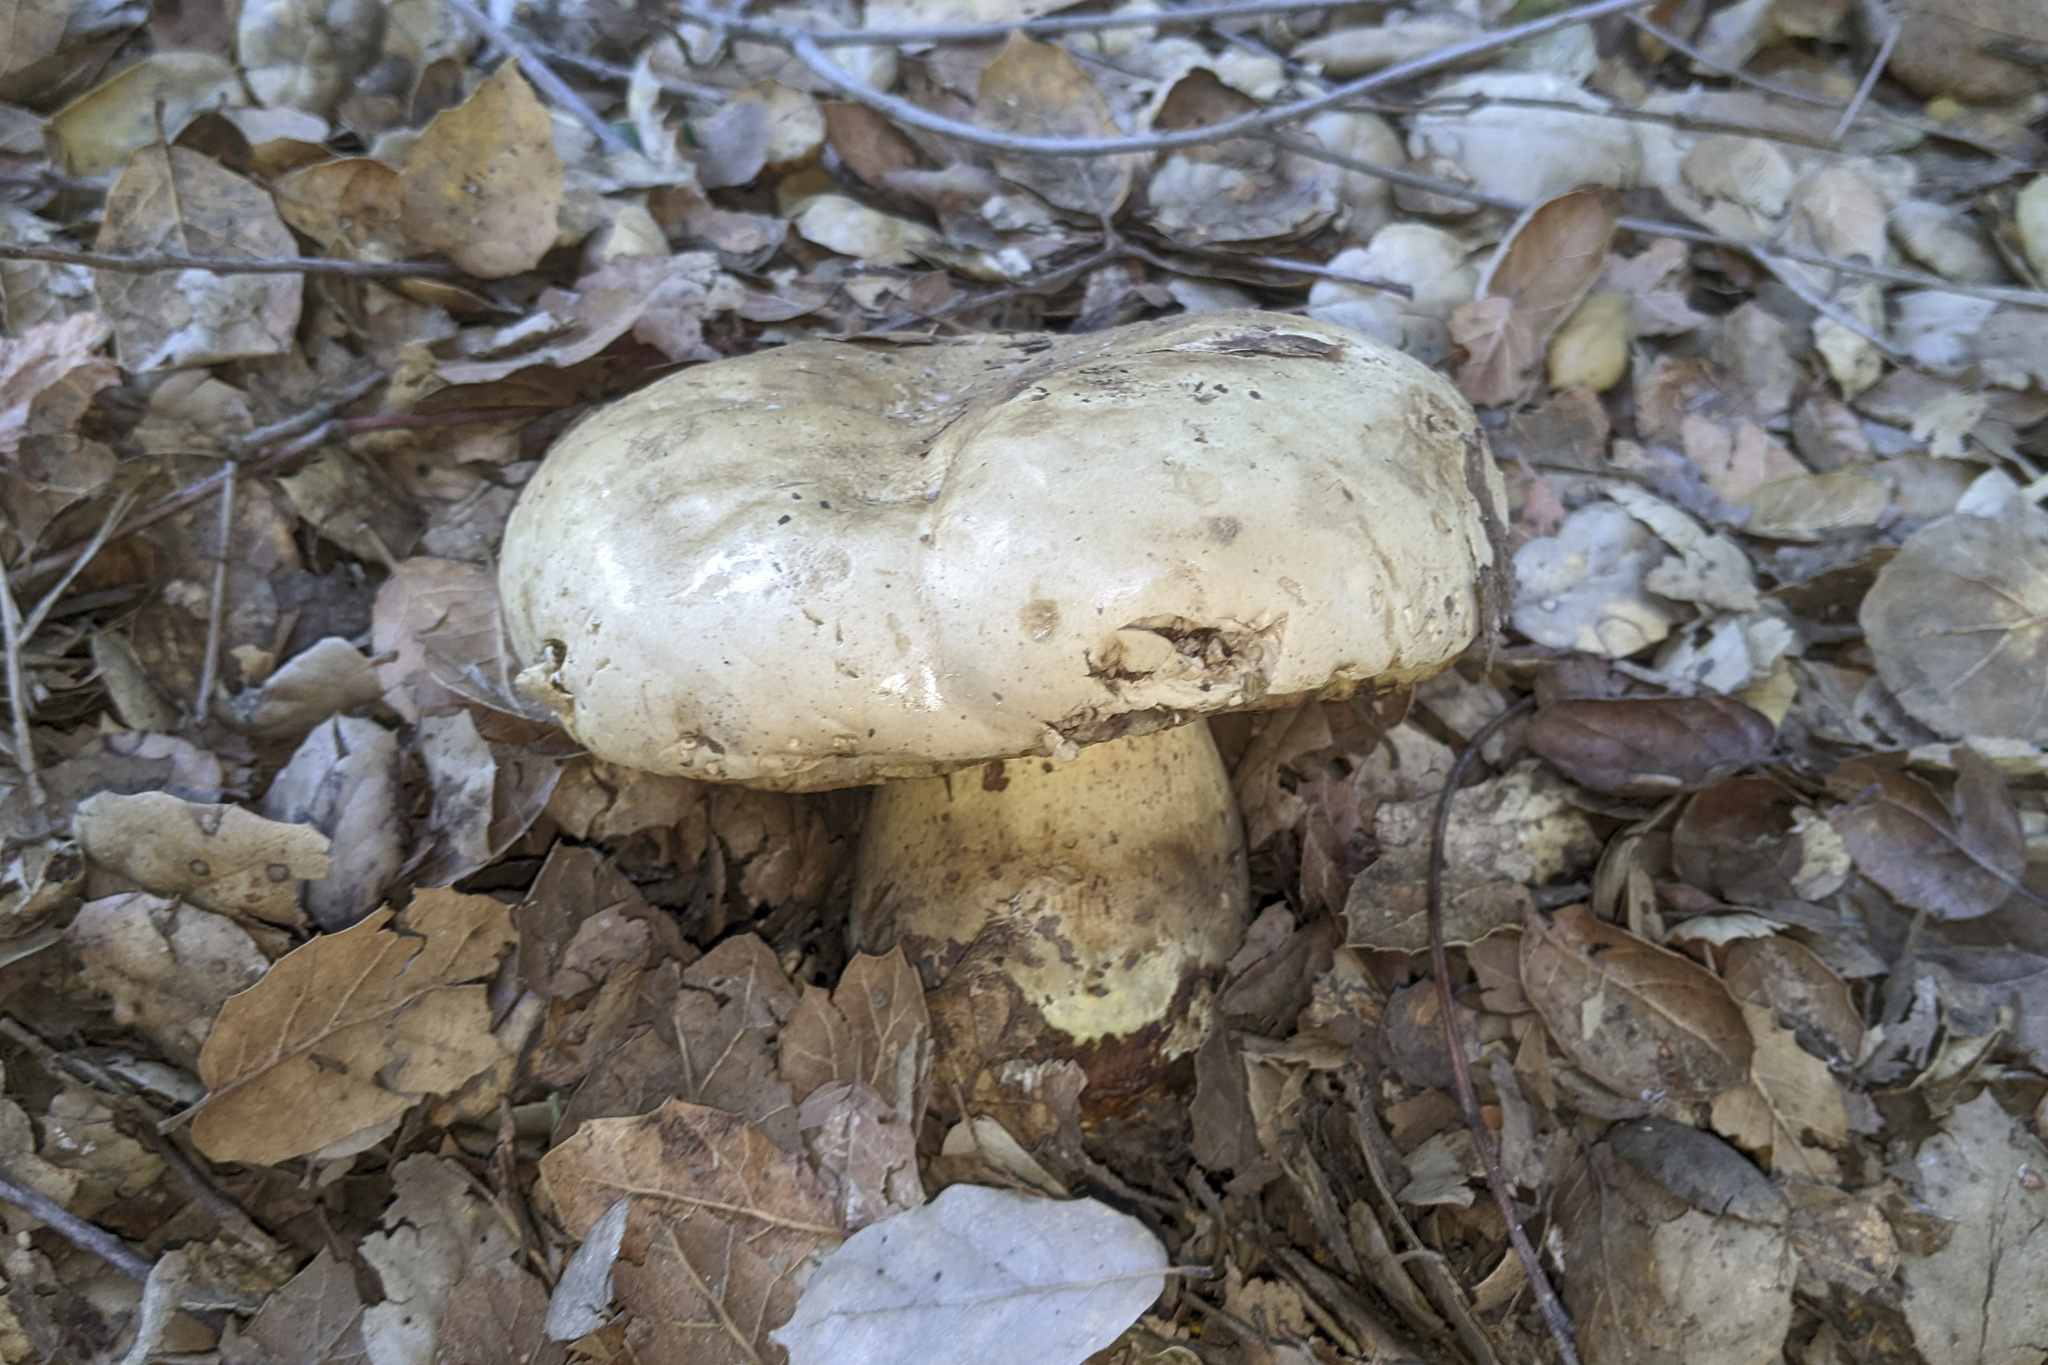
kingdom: Fungi
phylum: Basidiomycota
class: Agaricomycetes
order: Boletales
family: Boletaceae
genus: Caloboletus
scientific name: Caloboletus marshii
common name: Ben's bitter bolete
